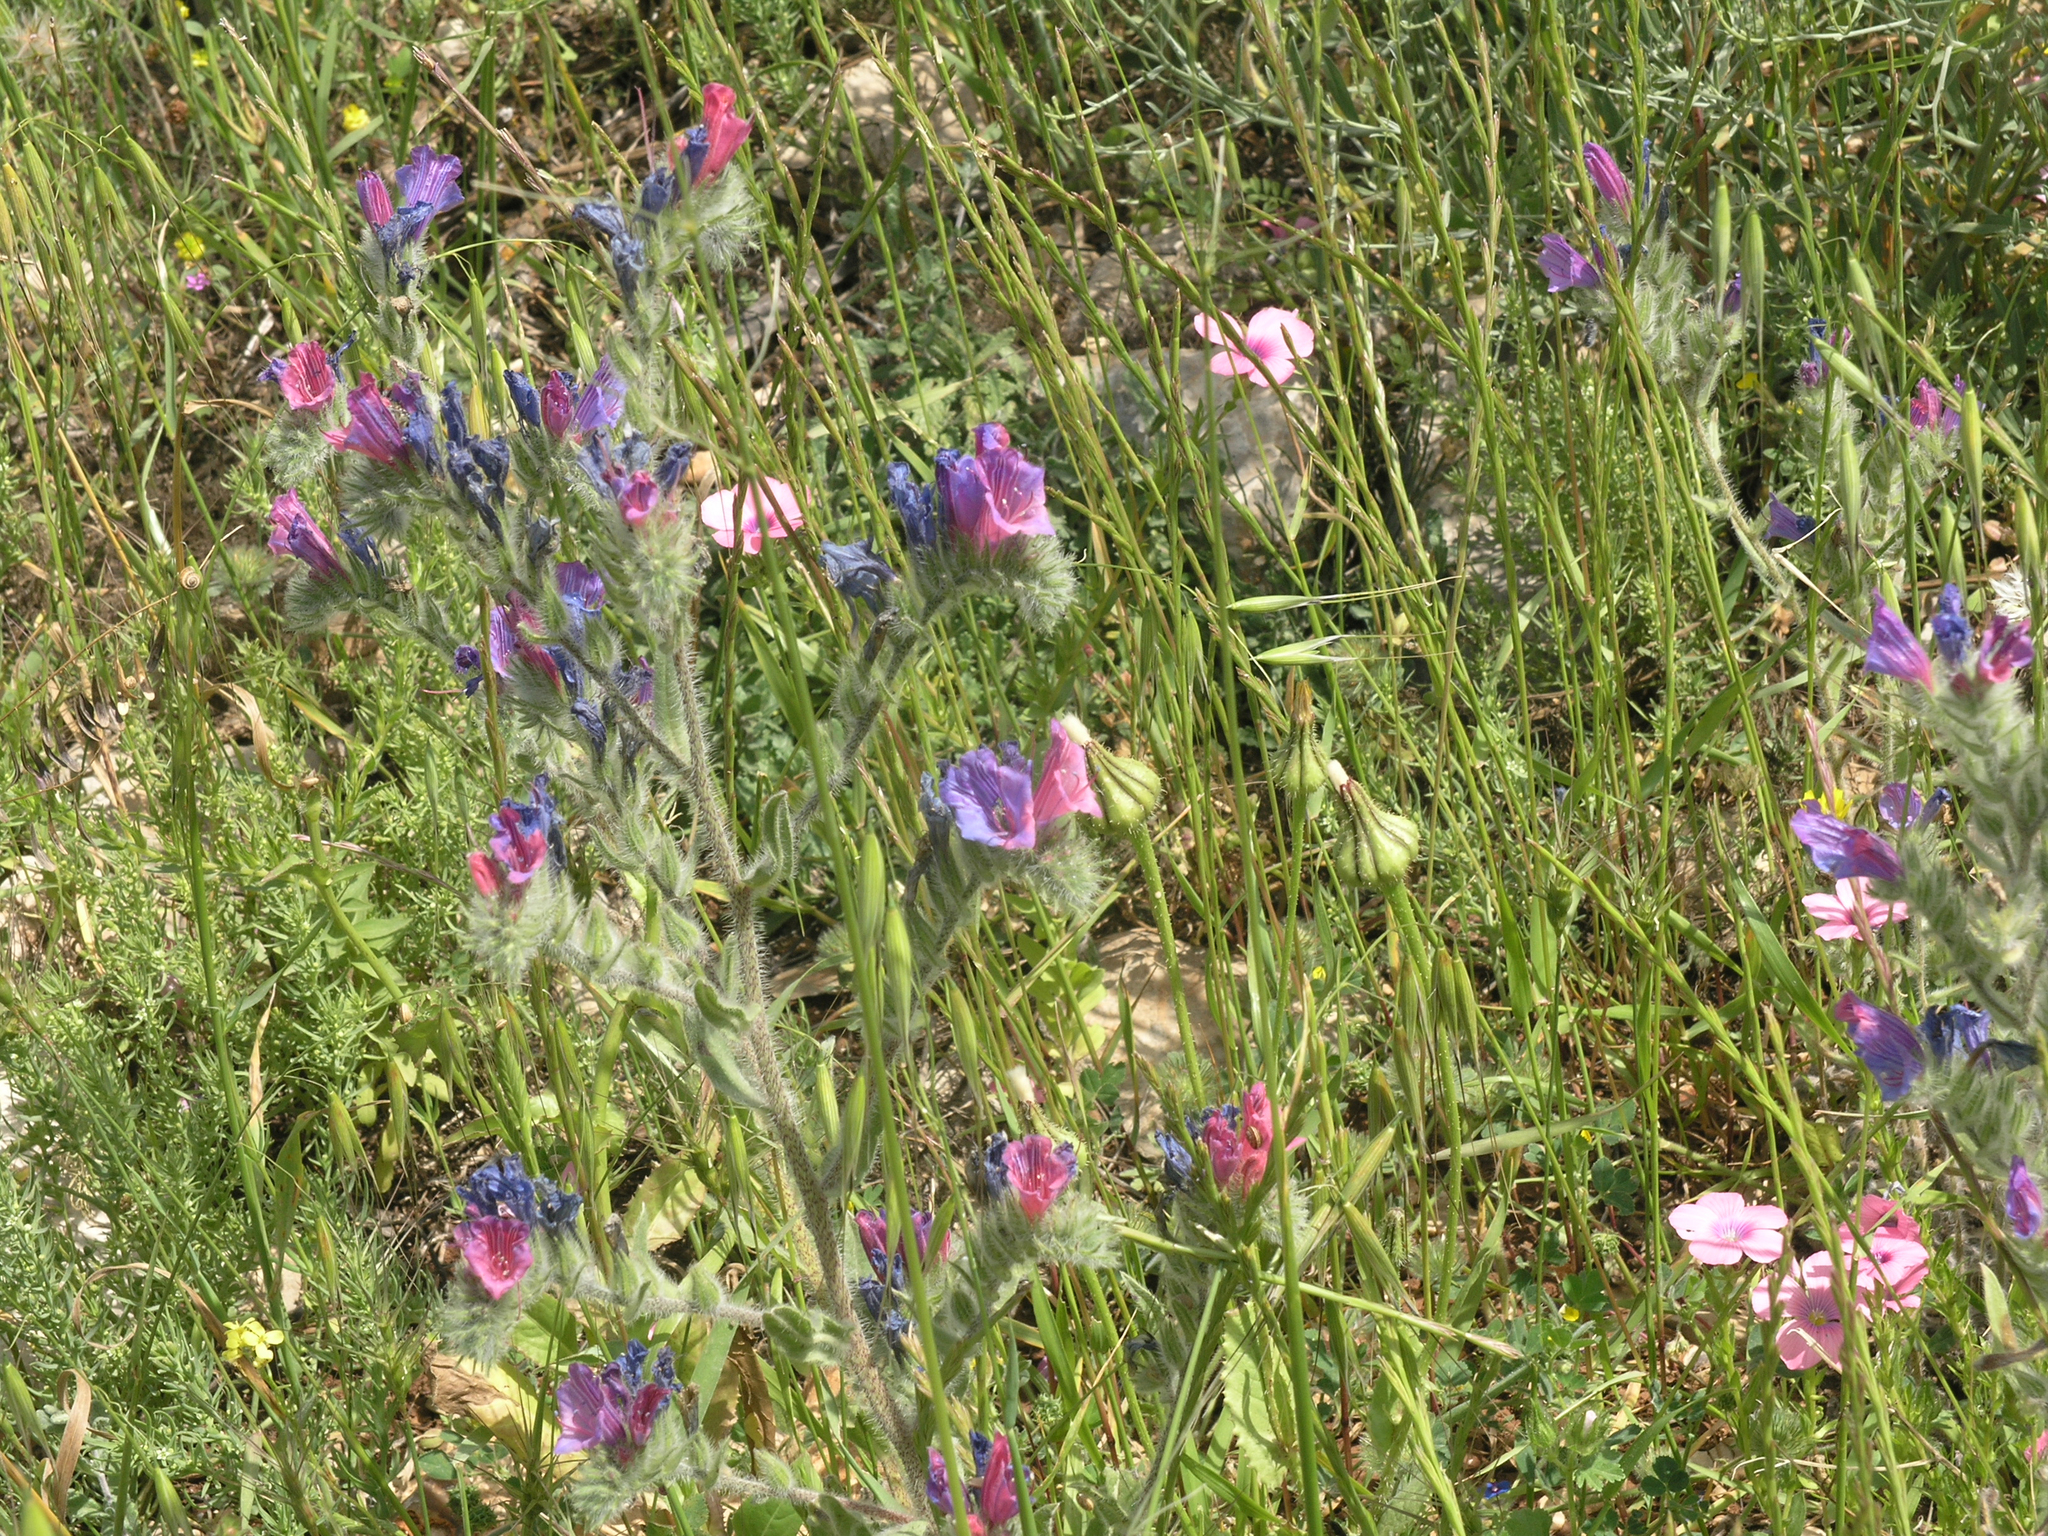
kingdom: Plantae
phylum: Tracheophyta
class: Magnoliopsida
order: Boraginales
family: Boraginaceae
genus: Echium
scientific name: Echium judaeum
